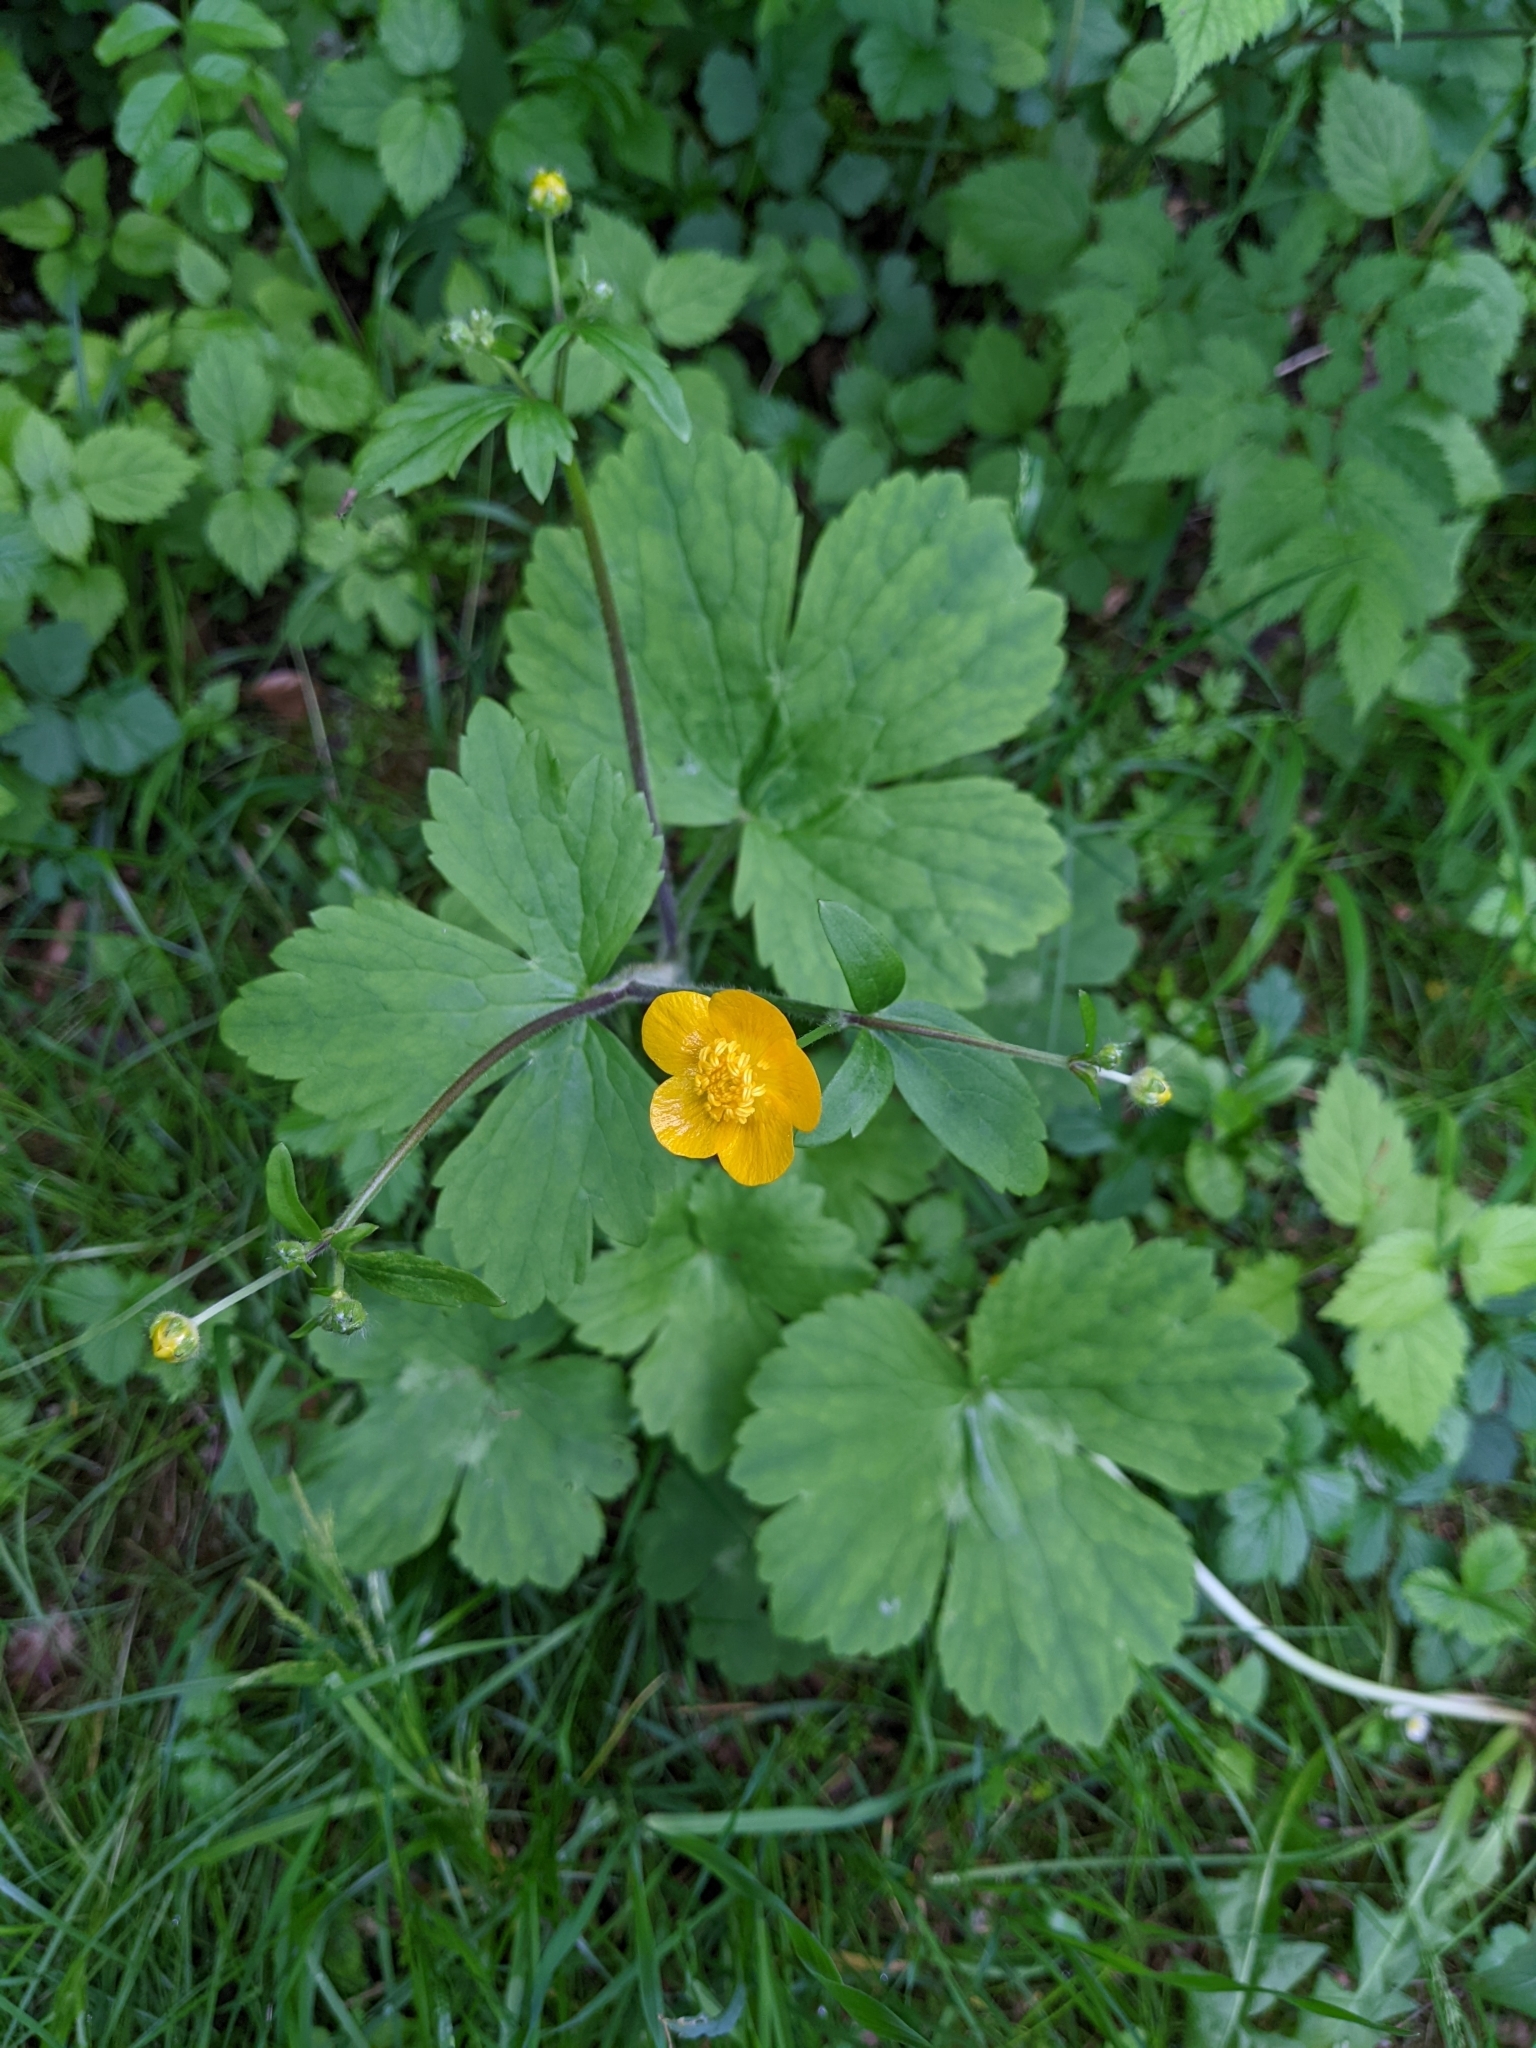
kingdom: Plantae
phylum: Tracheophyta
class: Magnoliopsida
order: Ranunculales
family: Ranunculaceae
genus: Ranunculus
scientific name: Ranunculus lanuginosus
